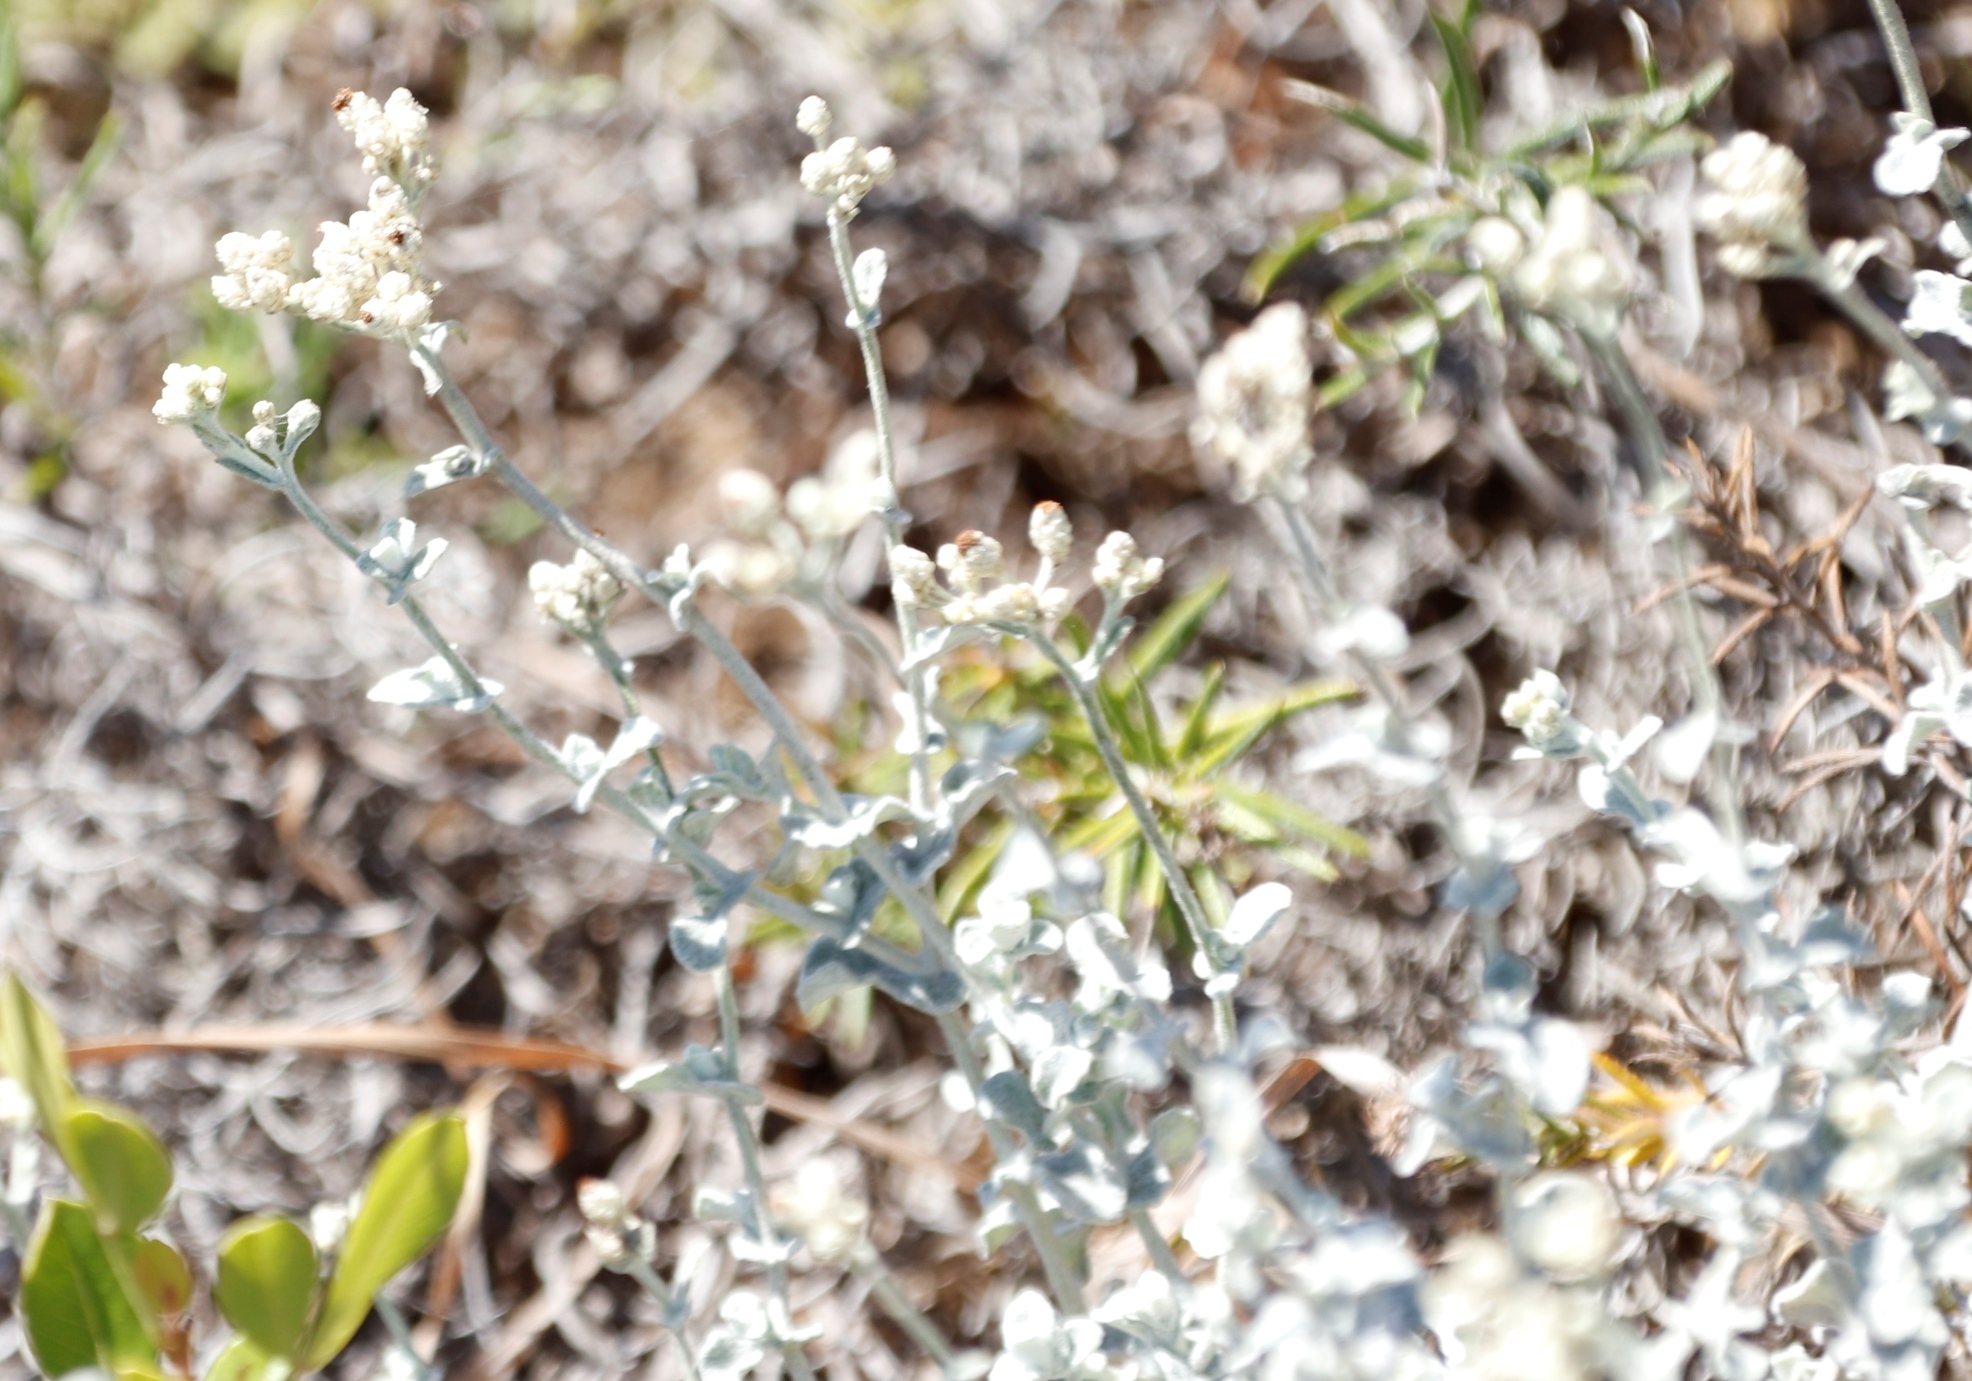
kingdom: Plantae
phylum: Tracheophyta
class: Magnoliopsida
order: Asterales
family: Asteraceae
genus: Helichrysum
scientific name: Helichrysum patulum
